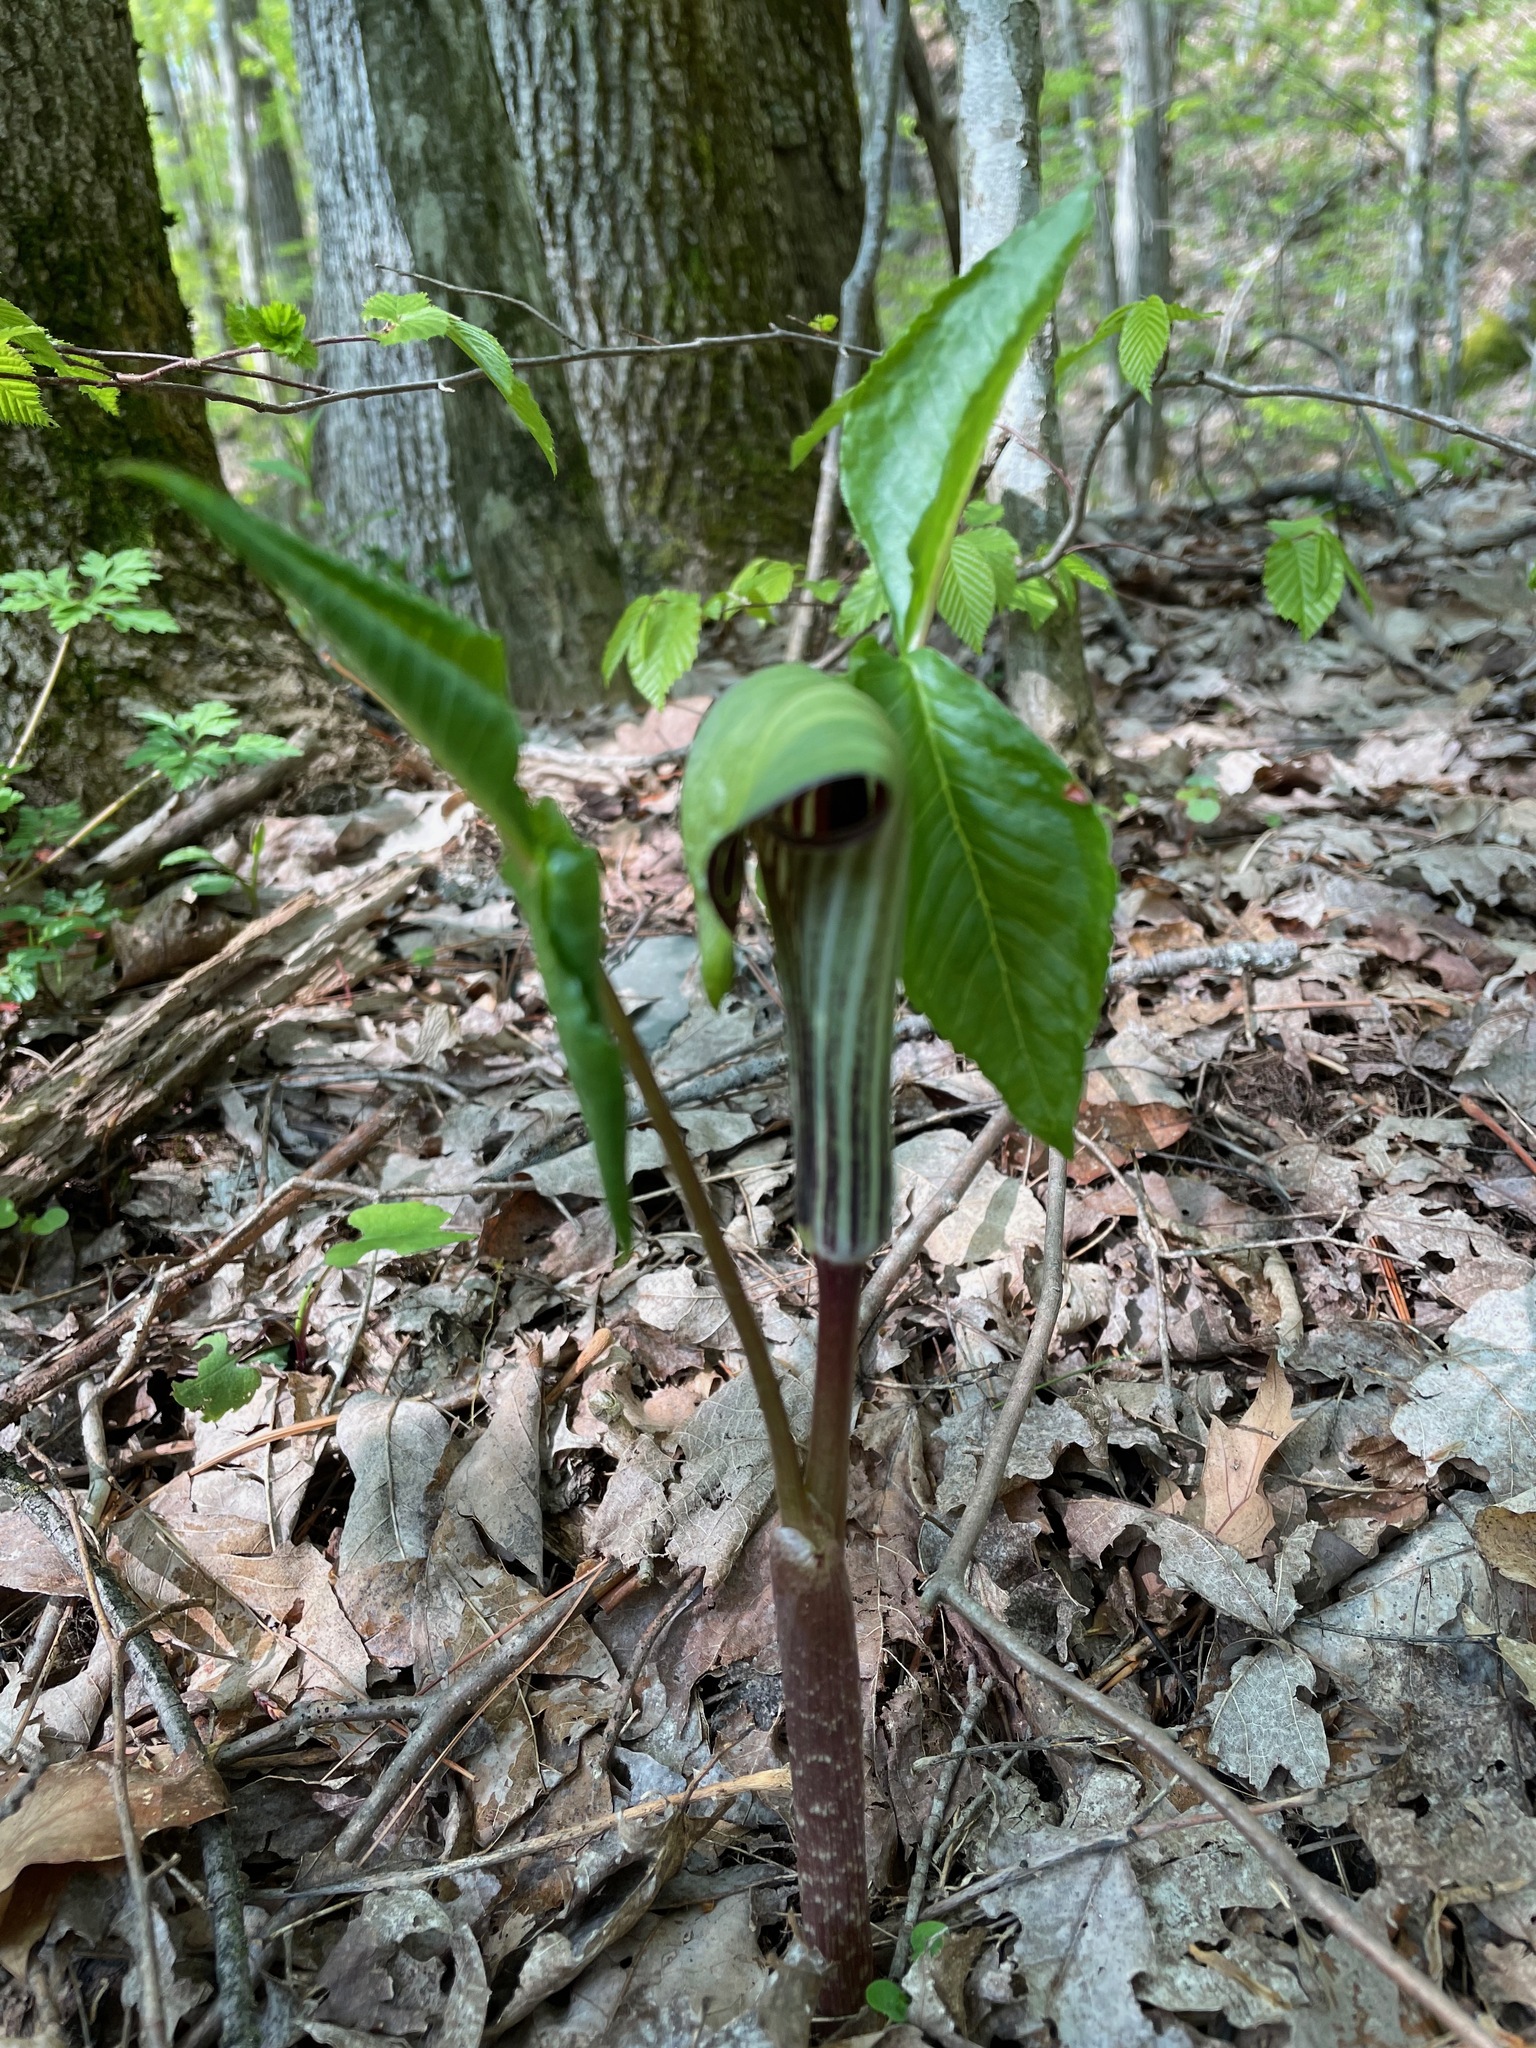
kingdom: Plantae
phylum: Tracheophyta
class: Liliopsida
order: Alismatales
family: Araceae
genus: Arisaema
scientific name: Arisaema triphyllum
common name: Jack-in-the-pulpit
